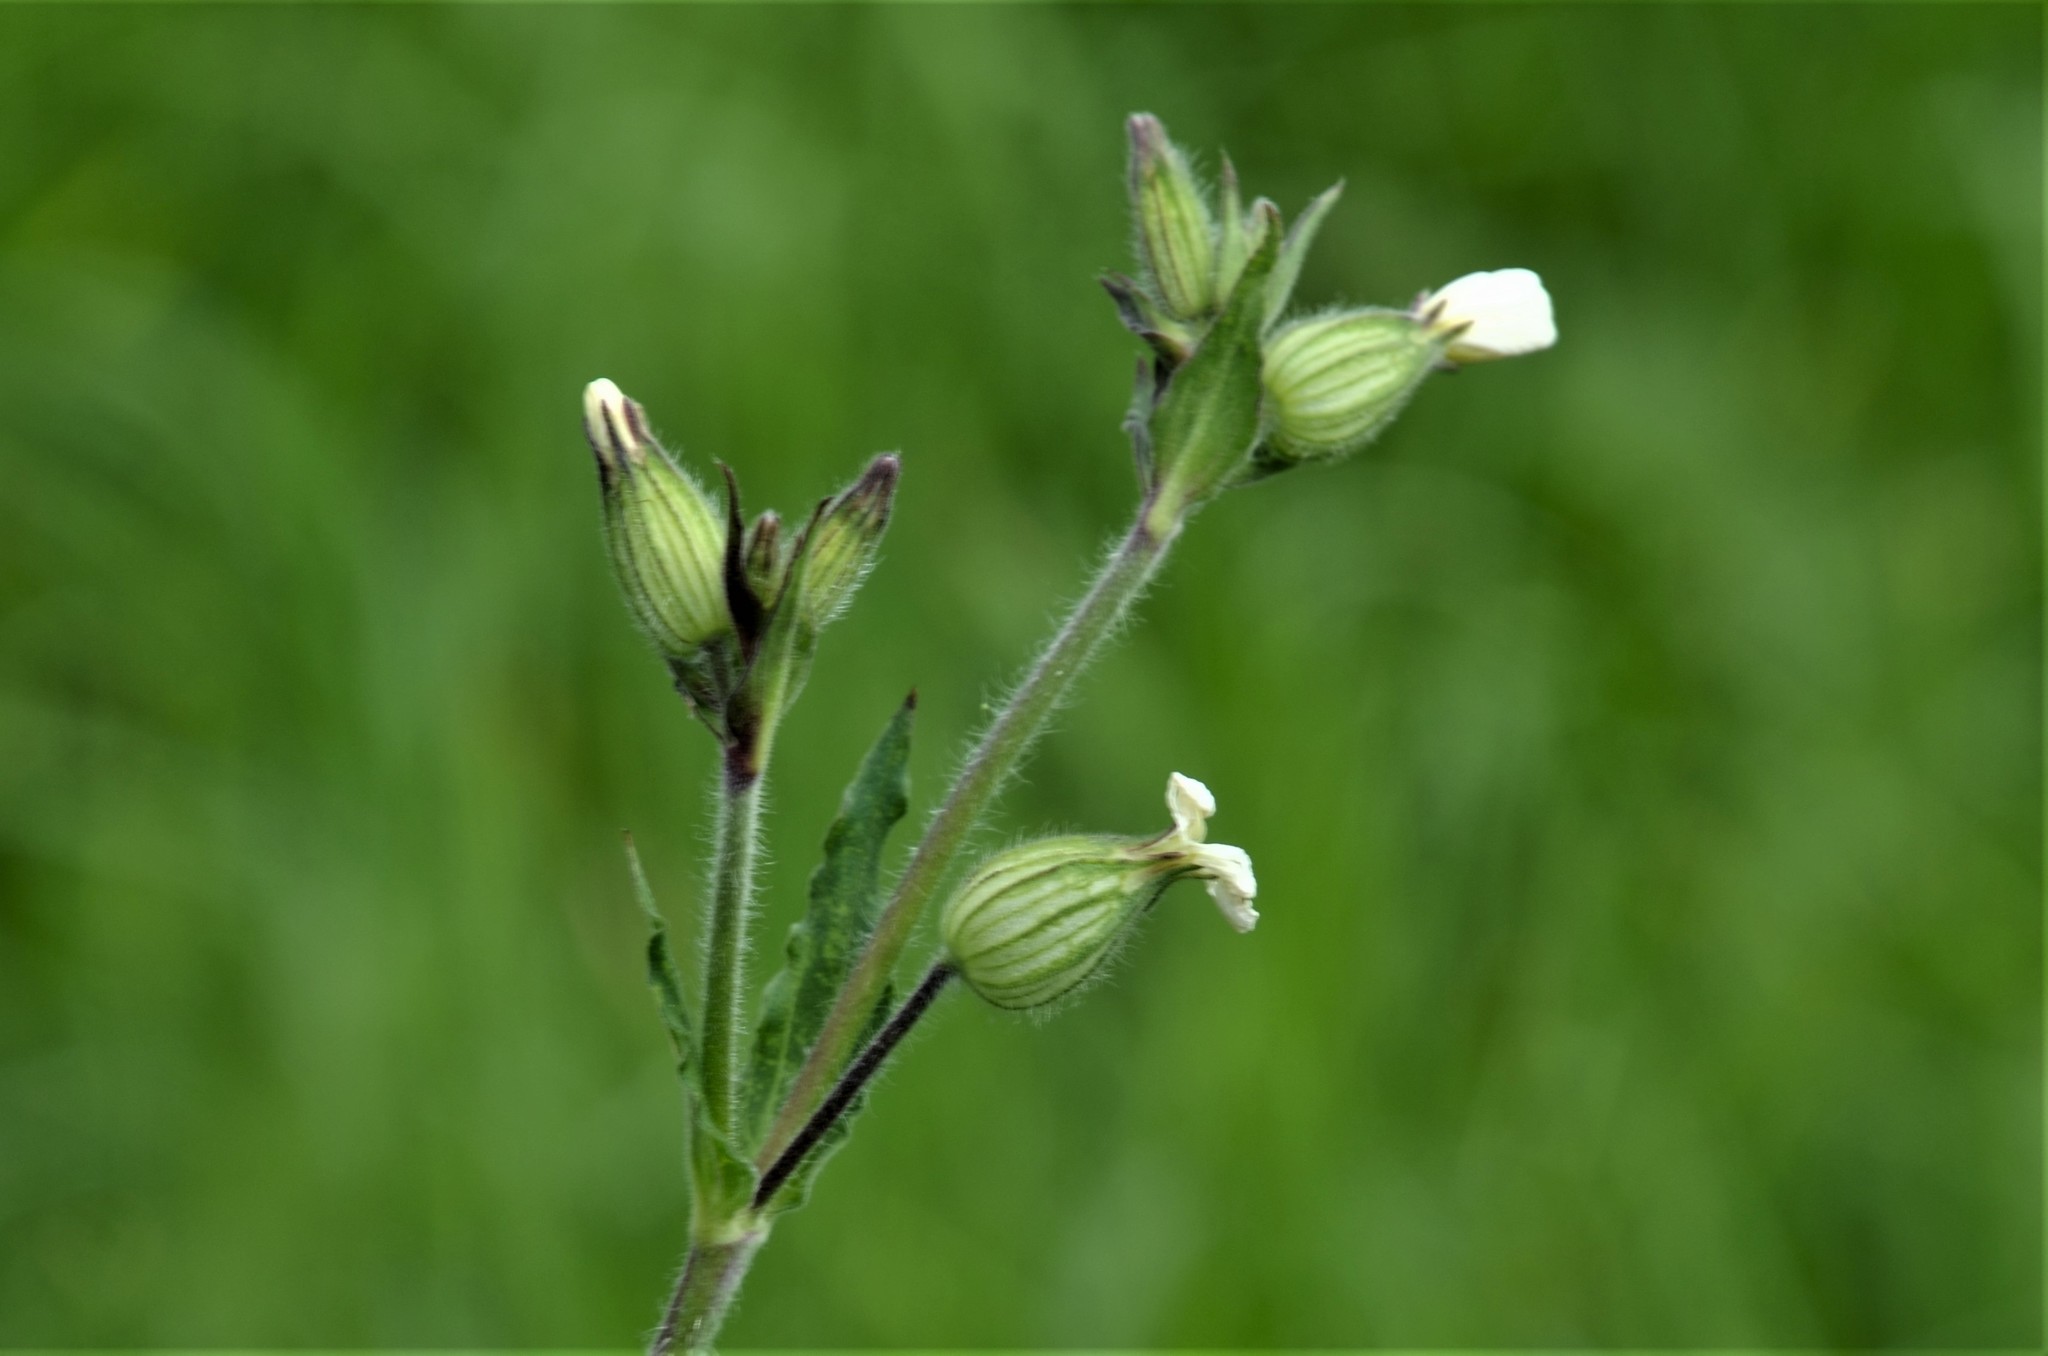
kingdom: Plantae
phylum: Tracheophyta
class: Magnoliopsida
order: Caryophyllales
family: Caryophyllaceae
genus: Silene
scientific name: Silene latifolia
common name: White campion
